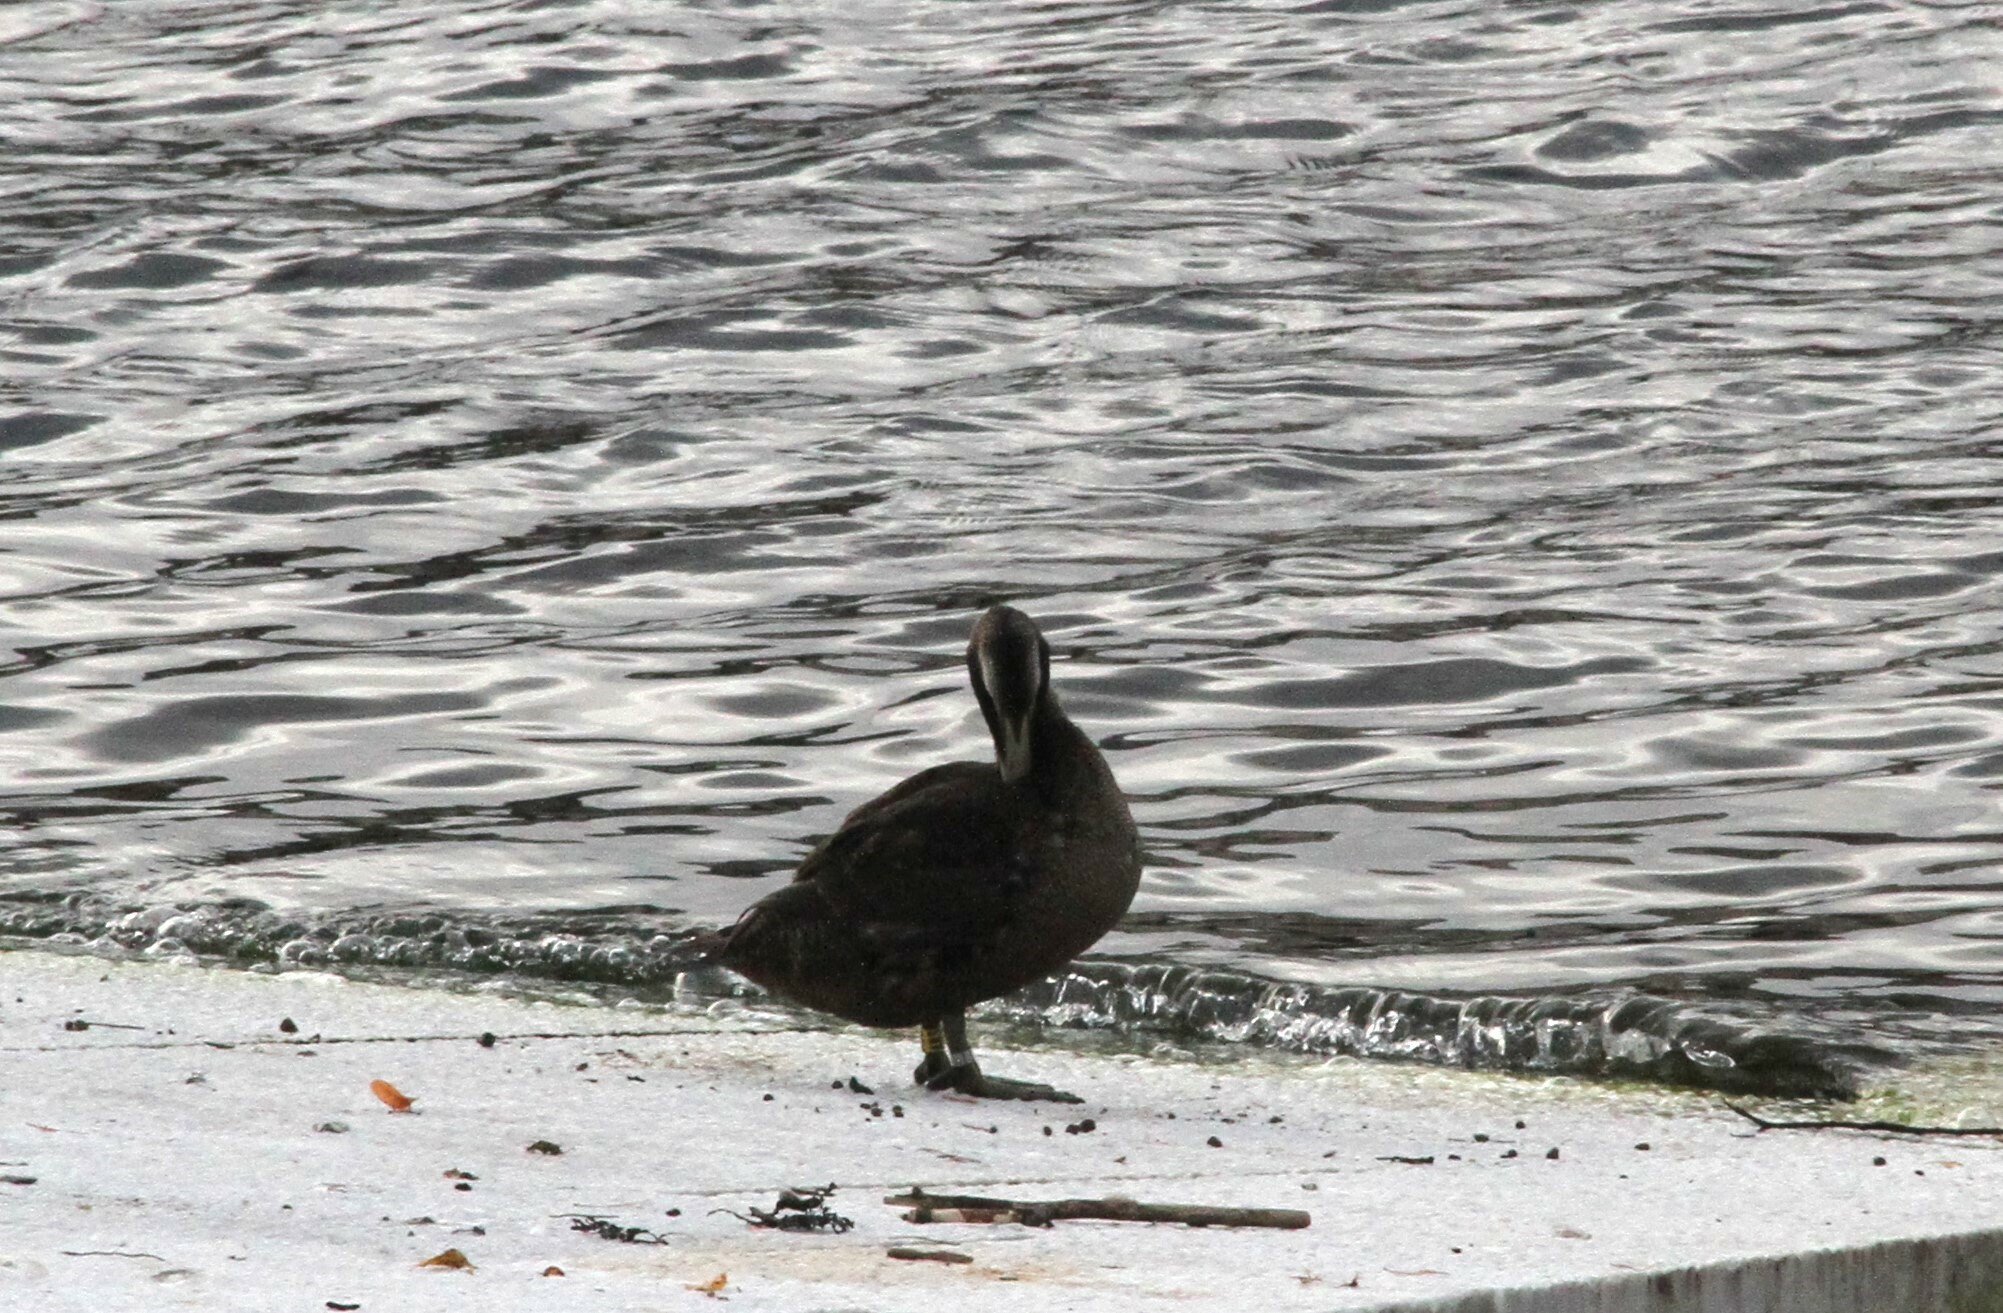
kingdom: Animalia
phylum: Chordata
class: Aves
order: Anseriformes
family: Anatidae
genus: Somateria
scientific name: Somateria mollissima
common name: Common eider
